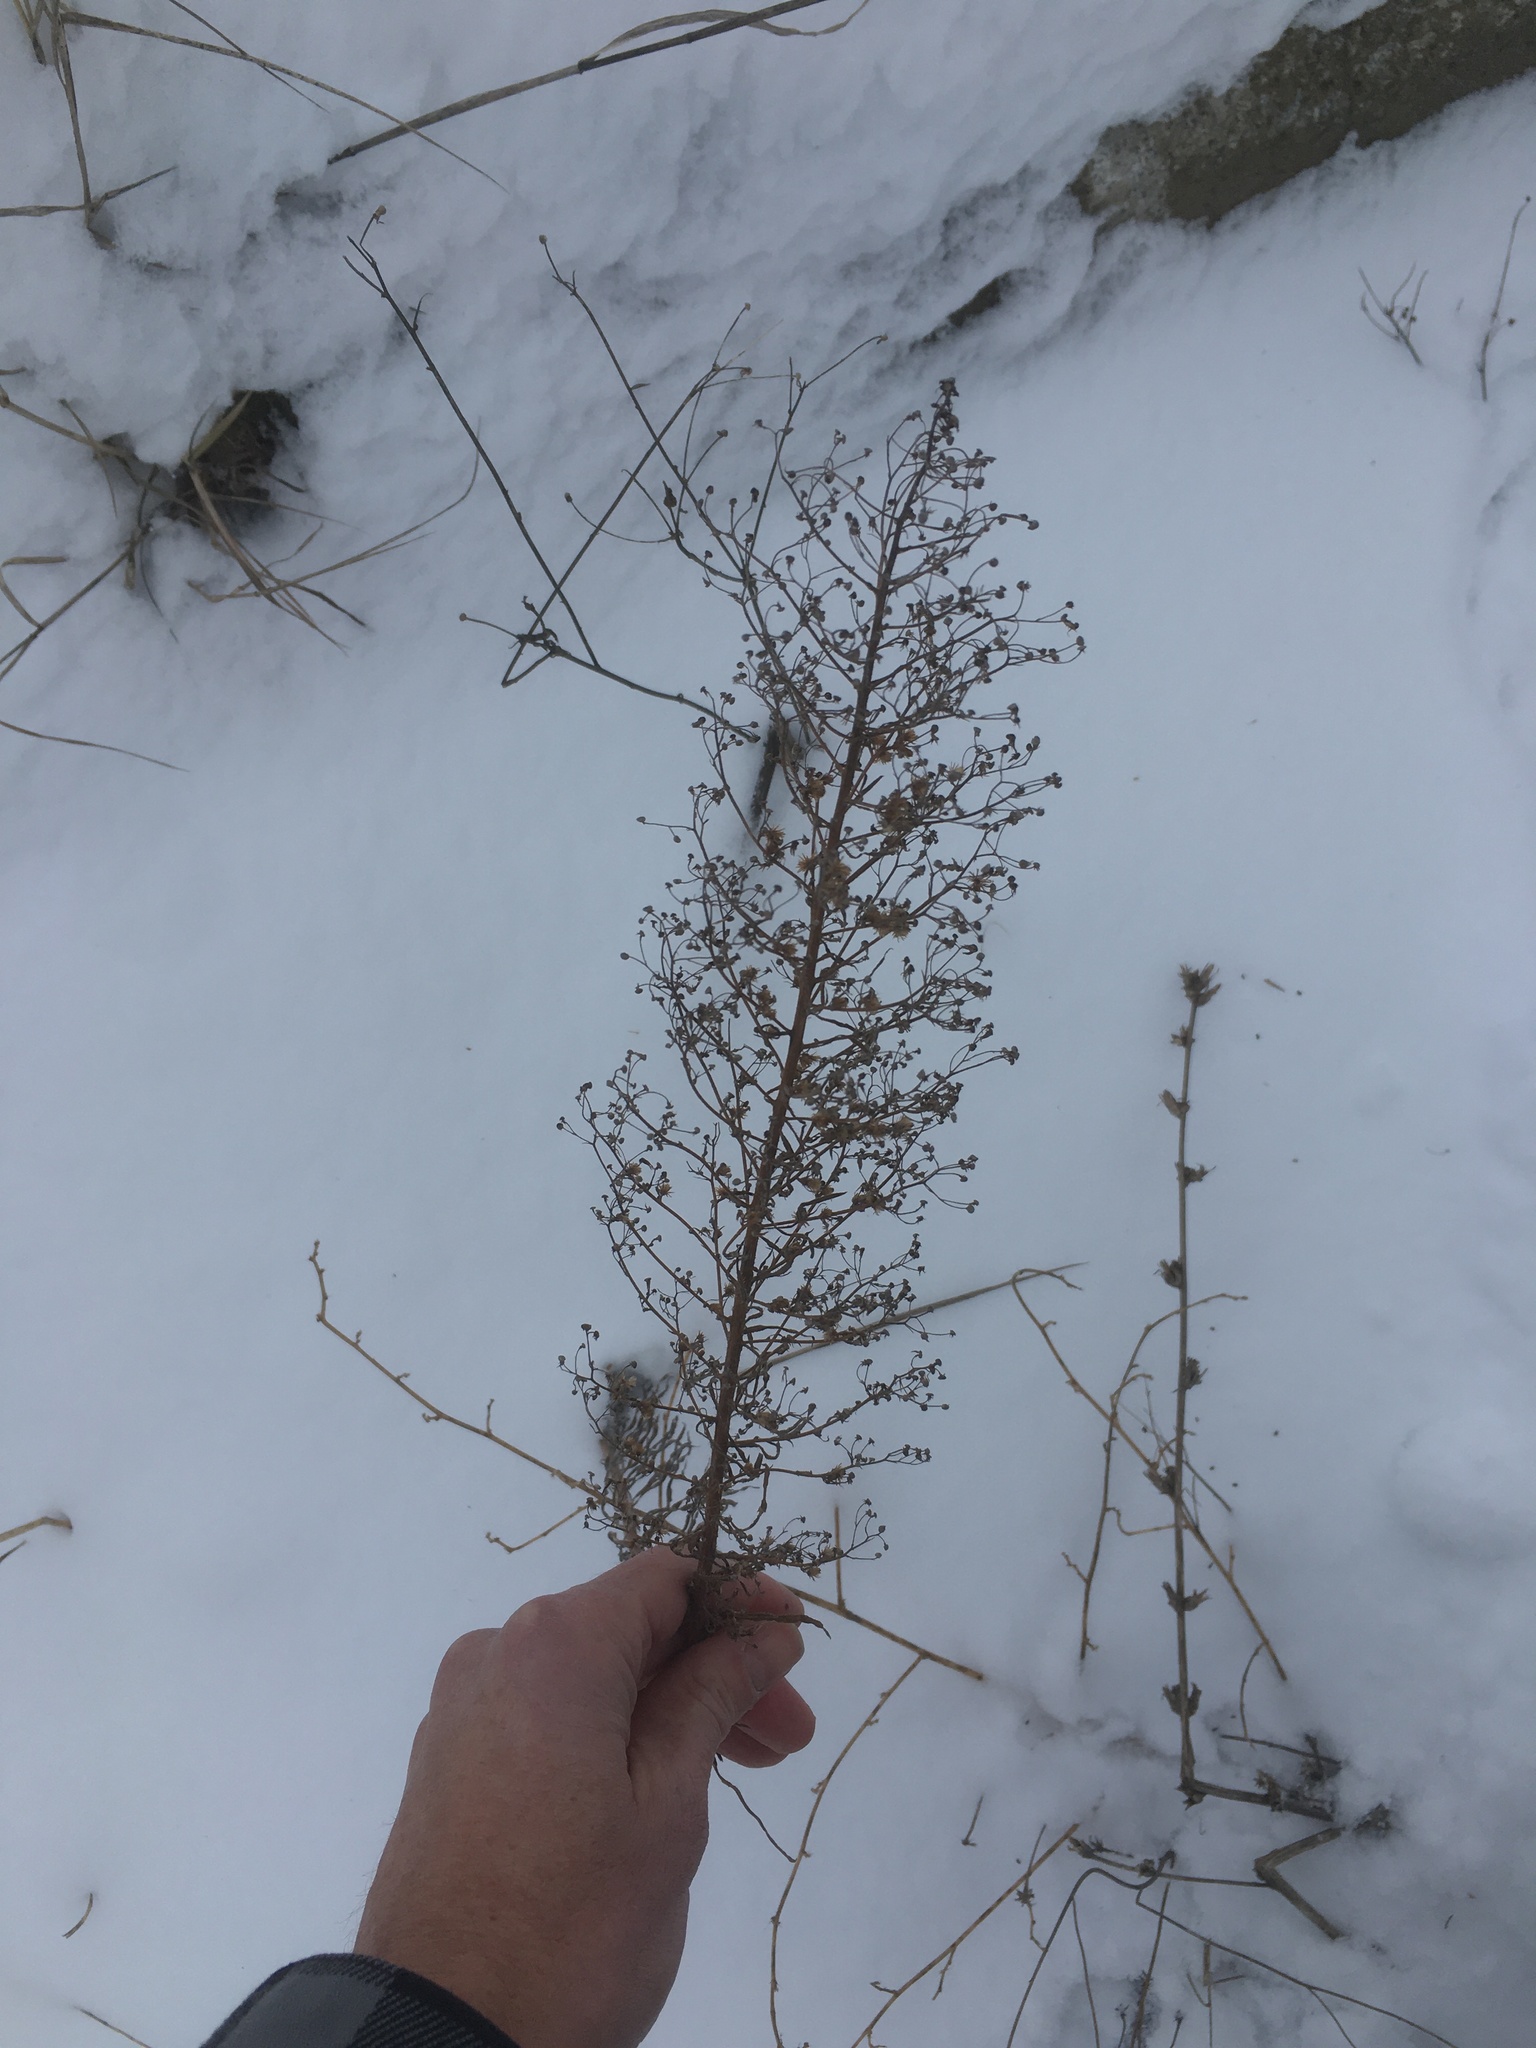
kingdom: Plantae
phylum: Tracheophyta
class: Magnoliopsida
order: Asterales
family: Asteraceae
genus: Erigeron
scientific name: Erigeron canadensis
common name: Canadian fleabane
